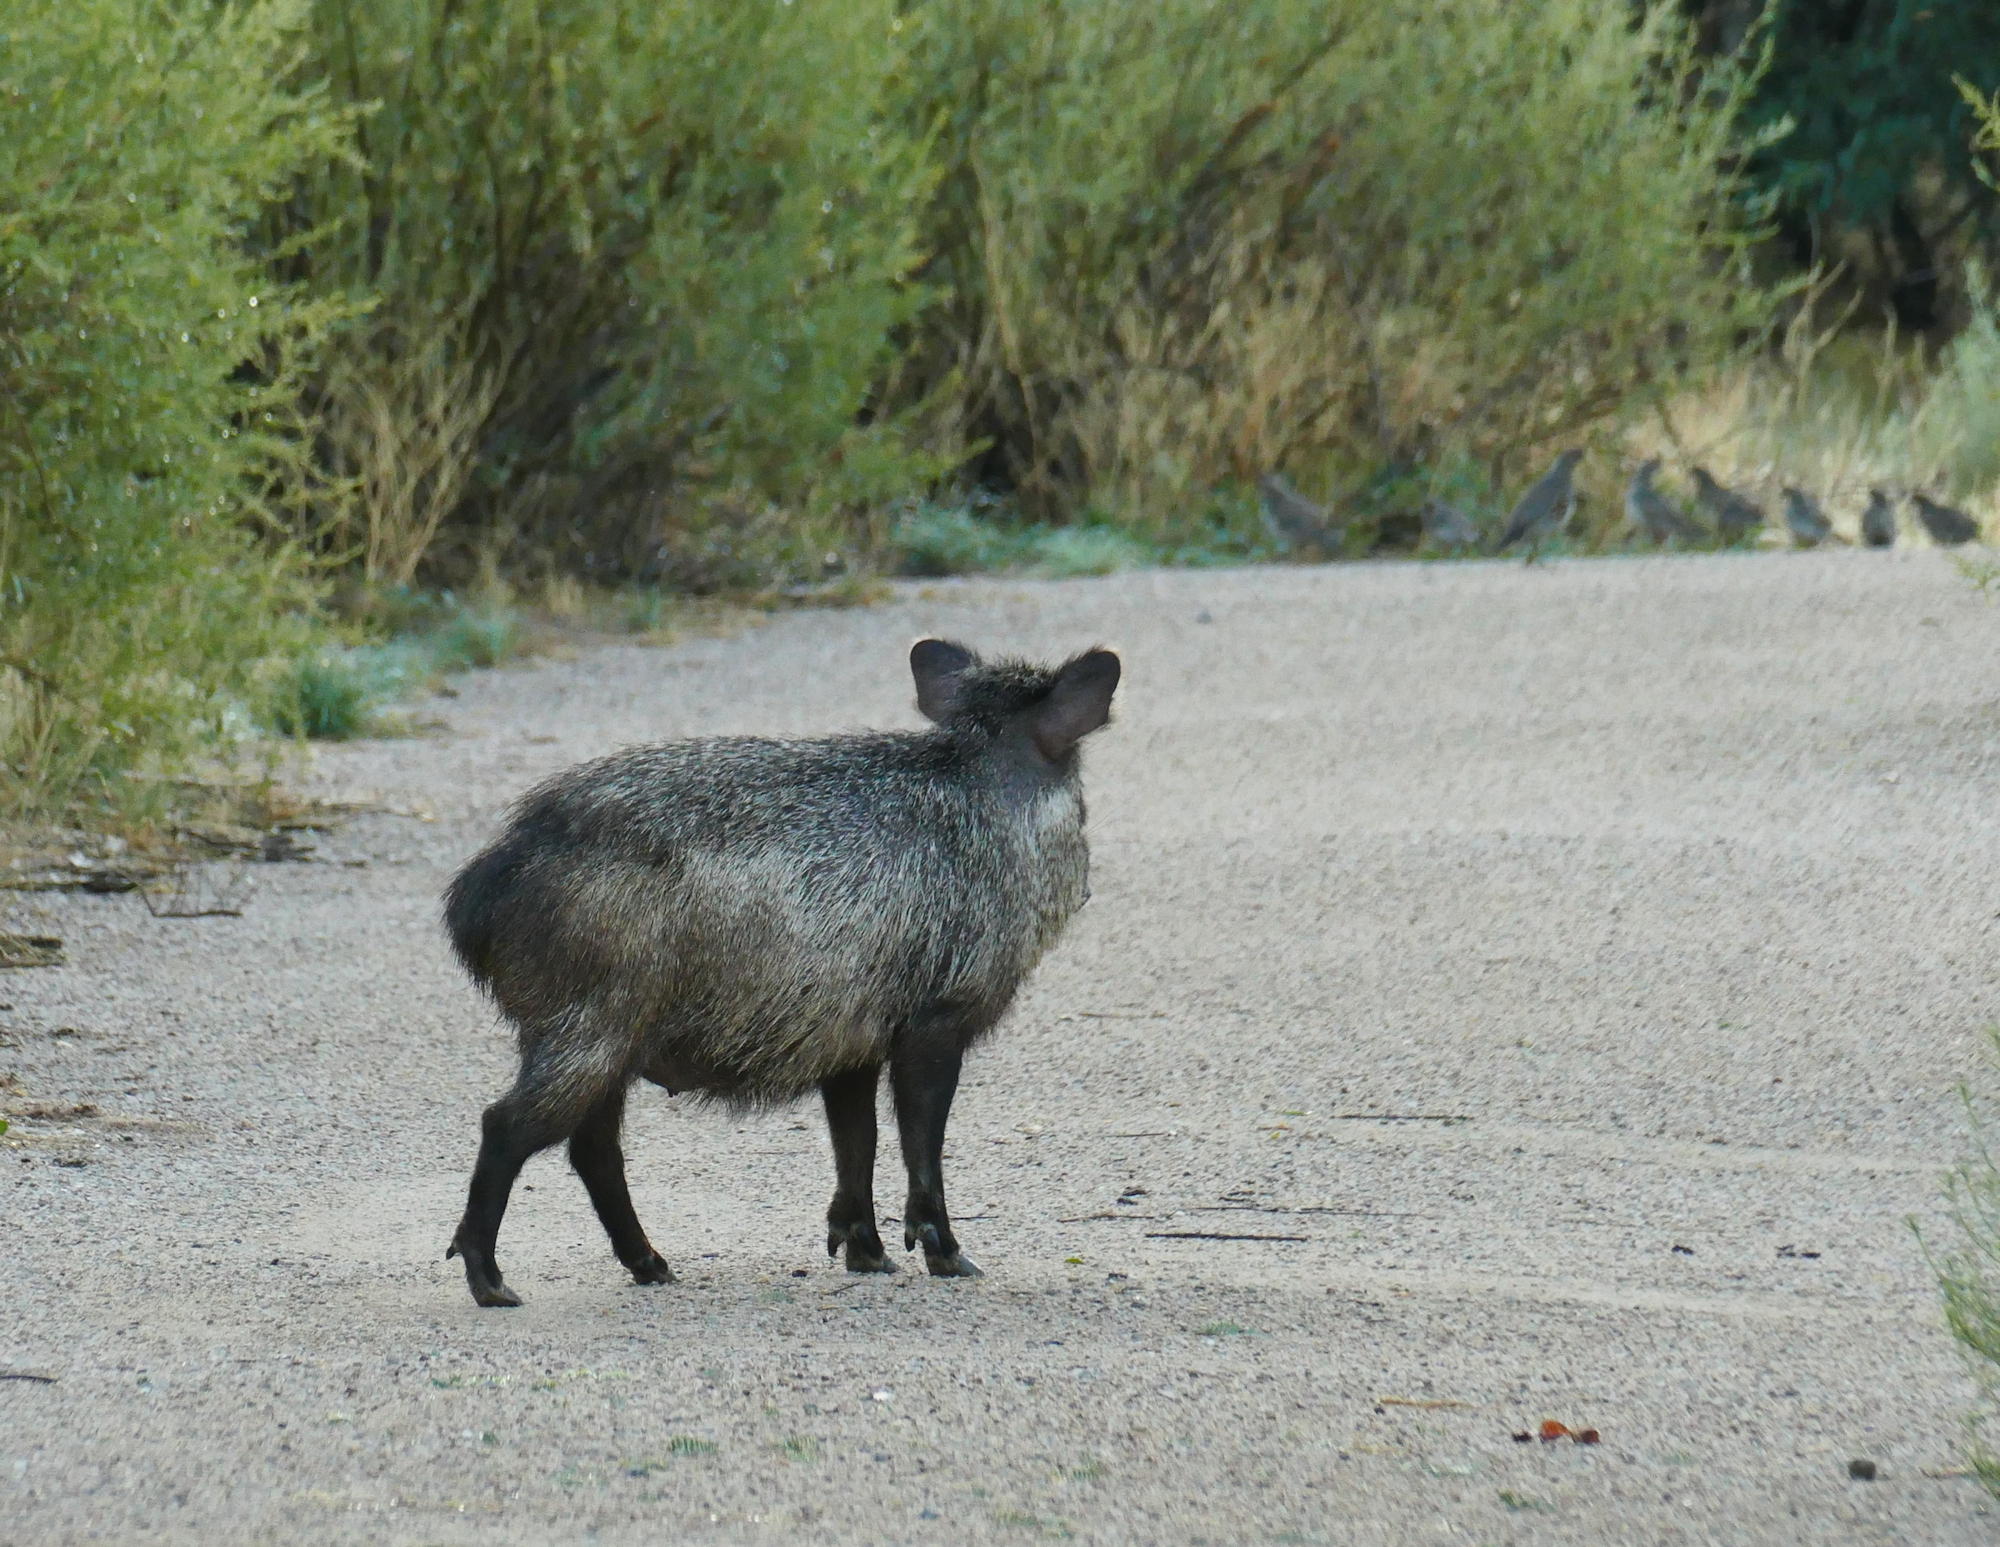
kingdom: Animalia
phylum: Chordata
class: Mammalia
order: Artiodactyla
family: Tayassuidae
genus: Pecari
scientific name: Pecari tajacu
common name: Collared peccary
